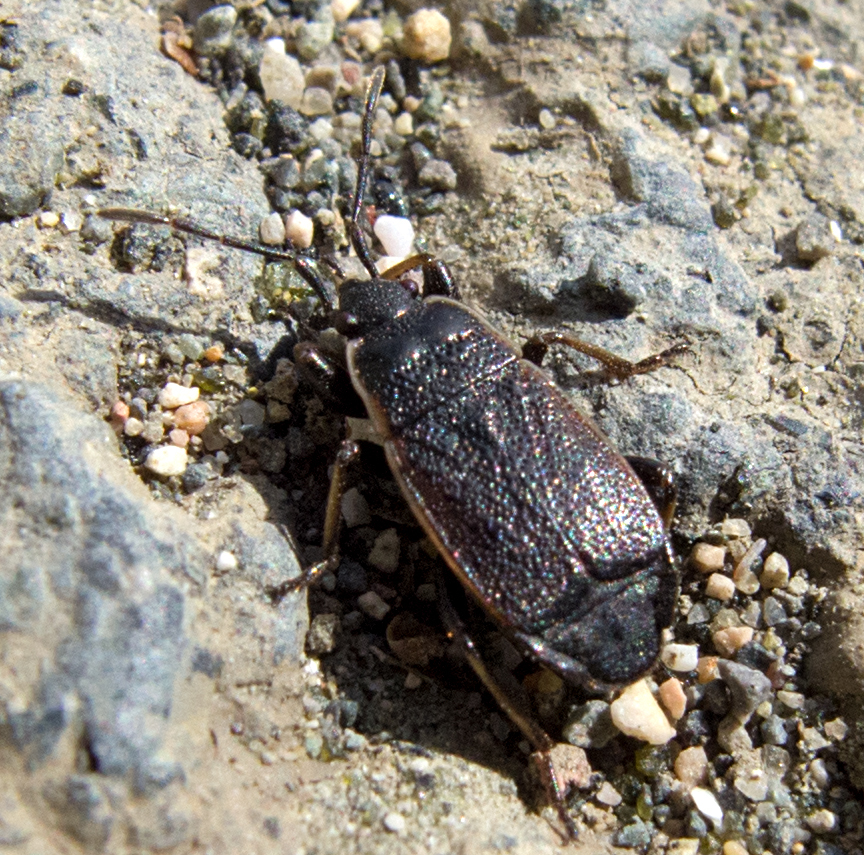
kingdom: Animalia
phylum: Arthropoda
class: Insecta
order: Hemiptera
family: Pyrrhocoridae
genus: Pyrrhocoris
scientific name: Pyrrhocoris marginatus
